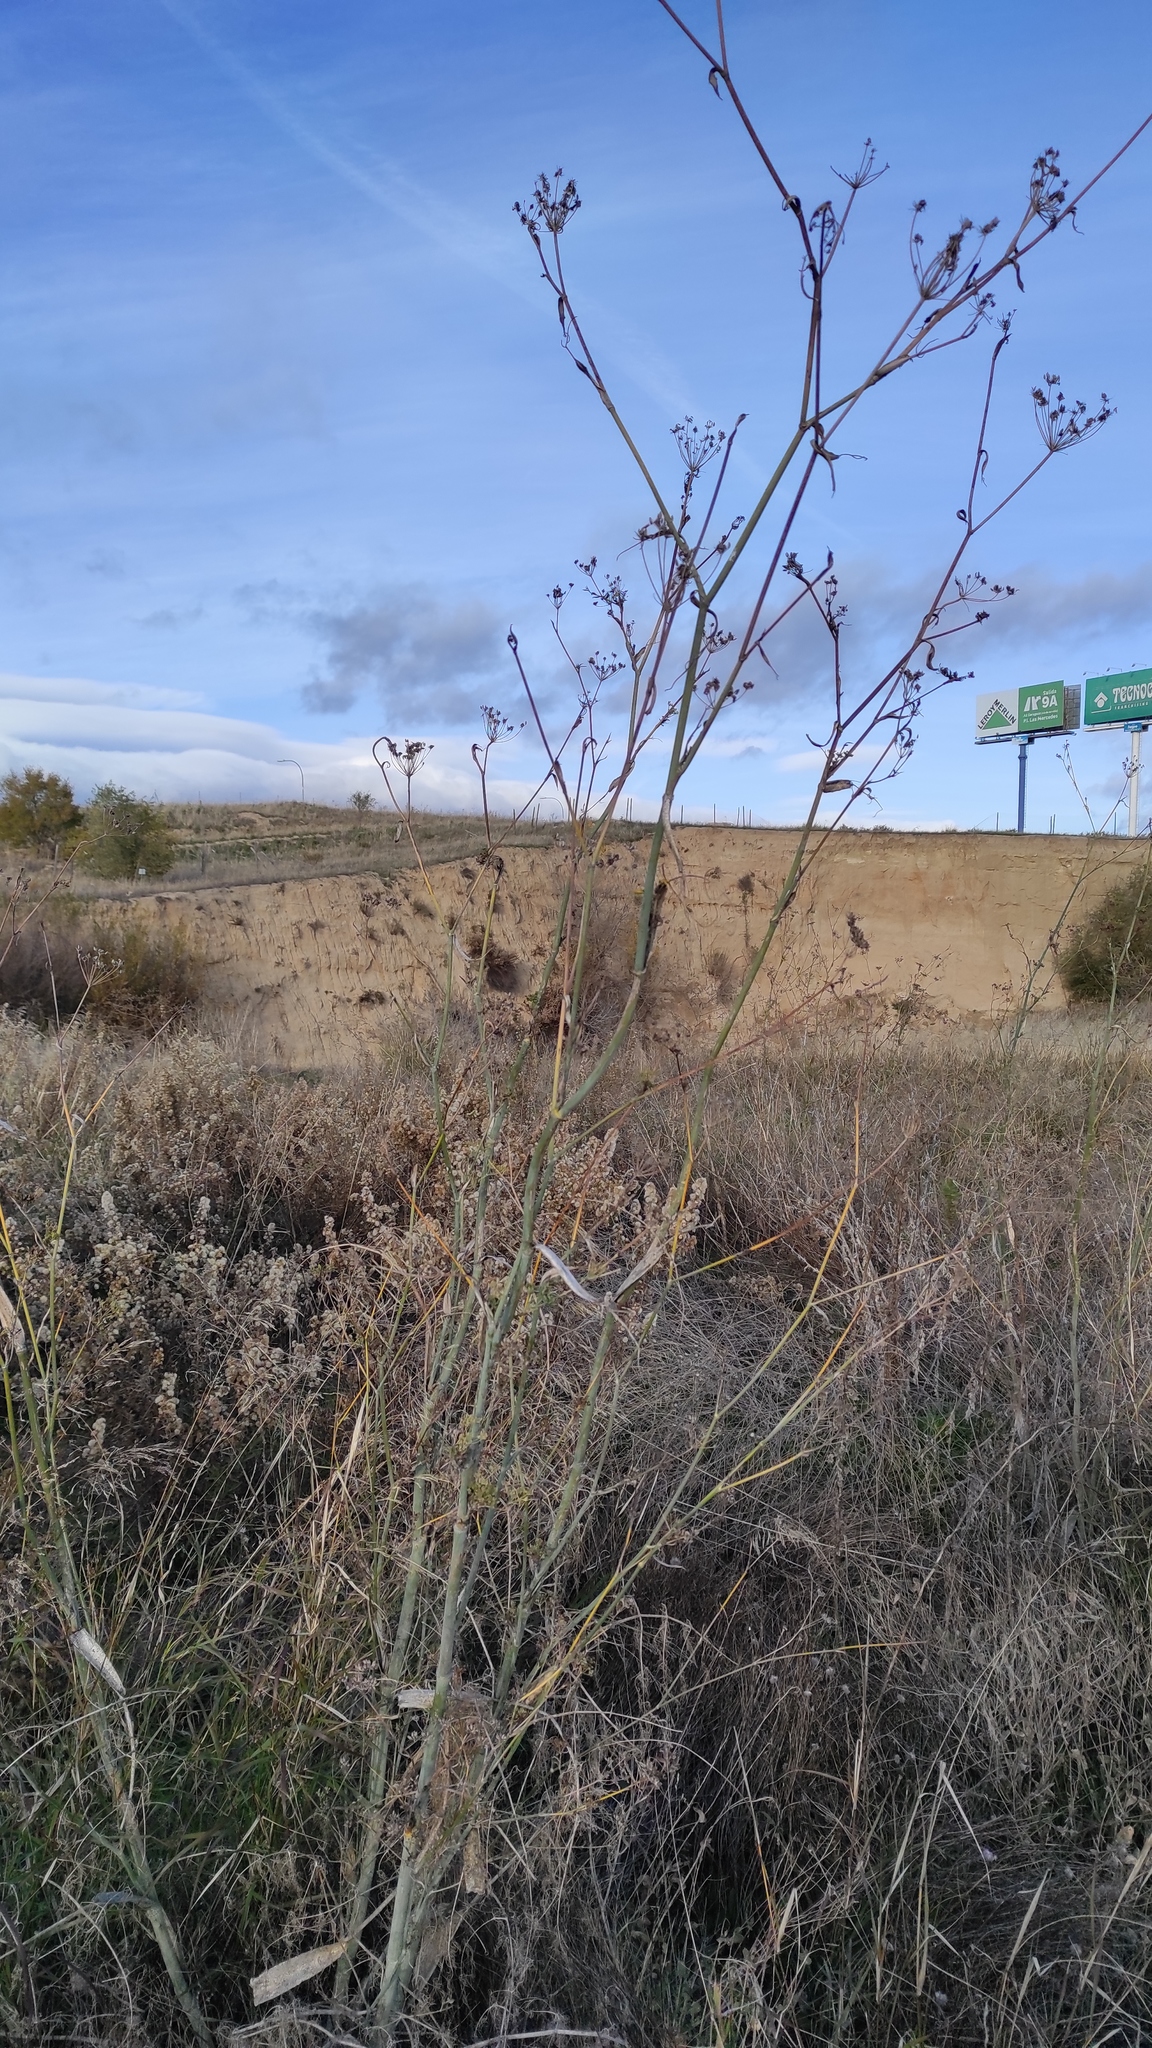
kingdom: Plantae
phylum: Tracheophyta
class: Magnoliopsida
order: Apiales
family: Apiaceae
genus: Foeniculum
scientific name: Foeniculum vulgare
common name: Fennel
